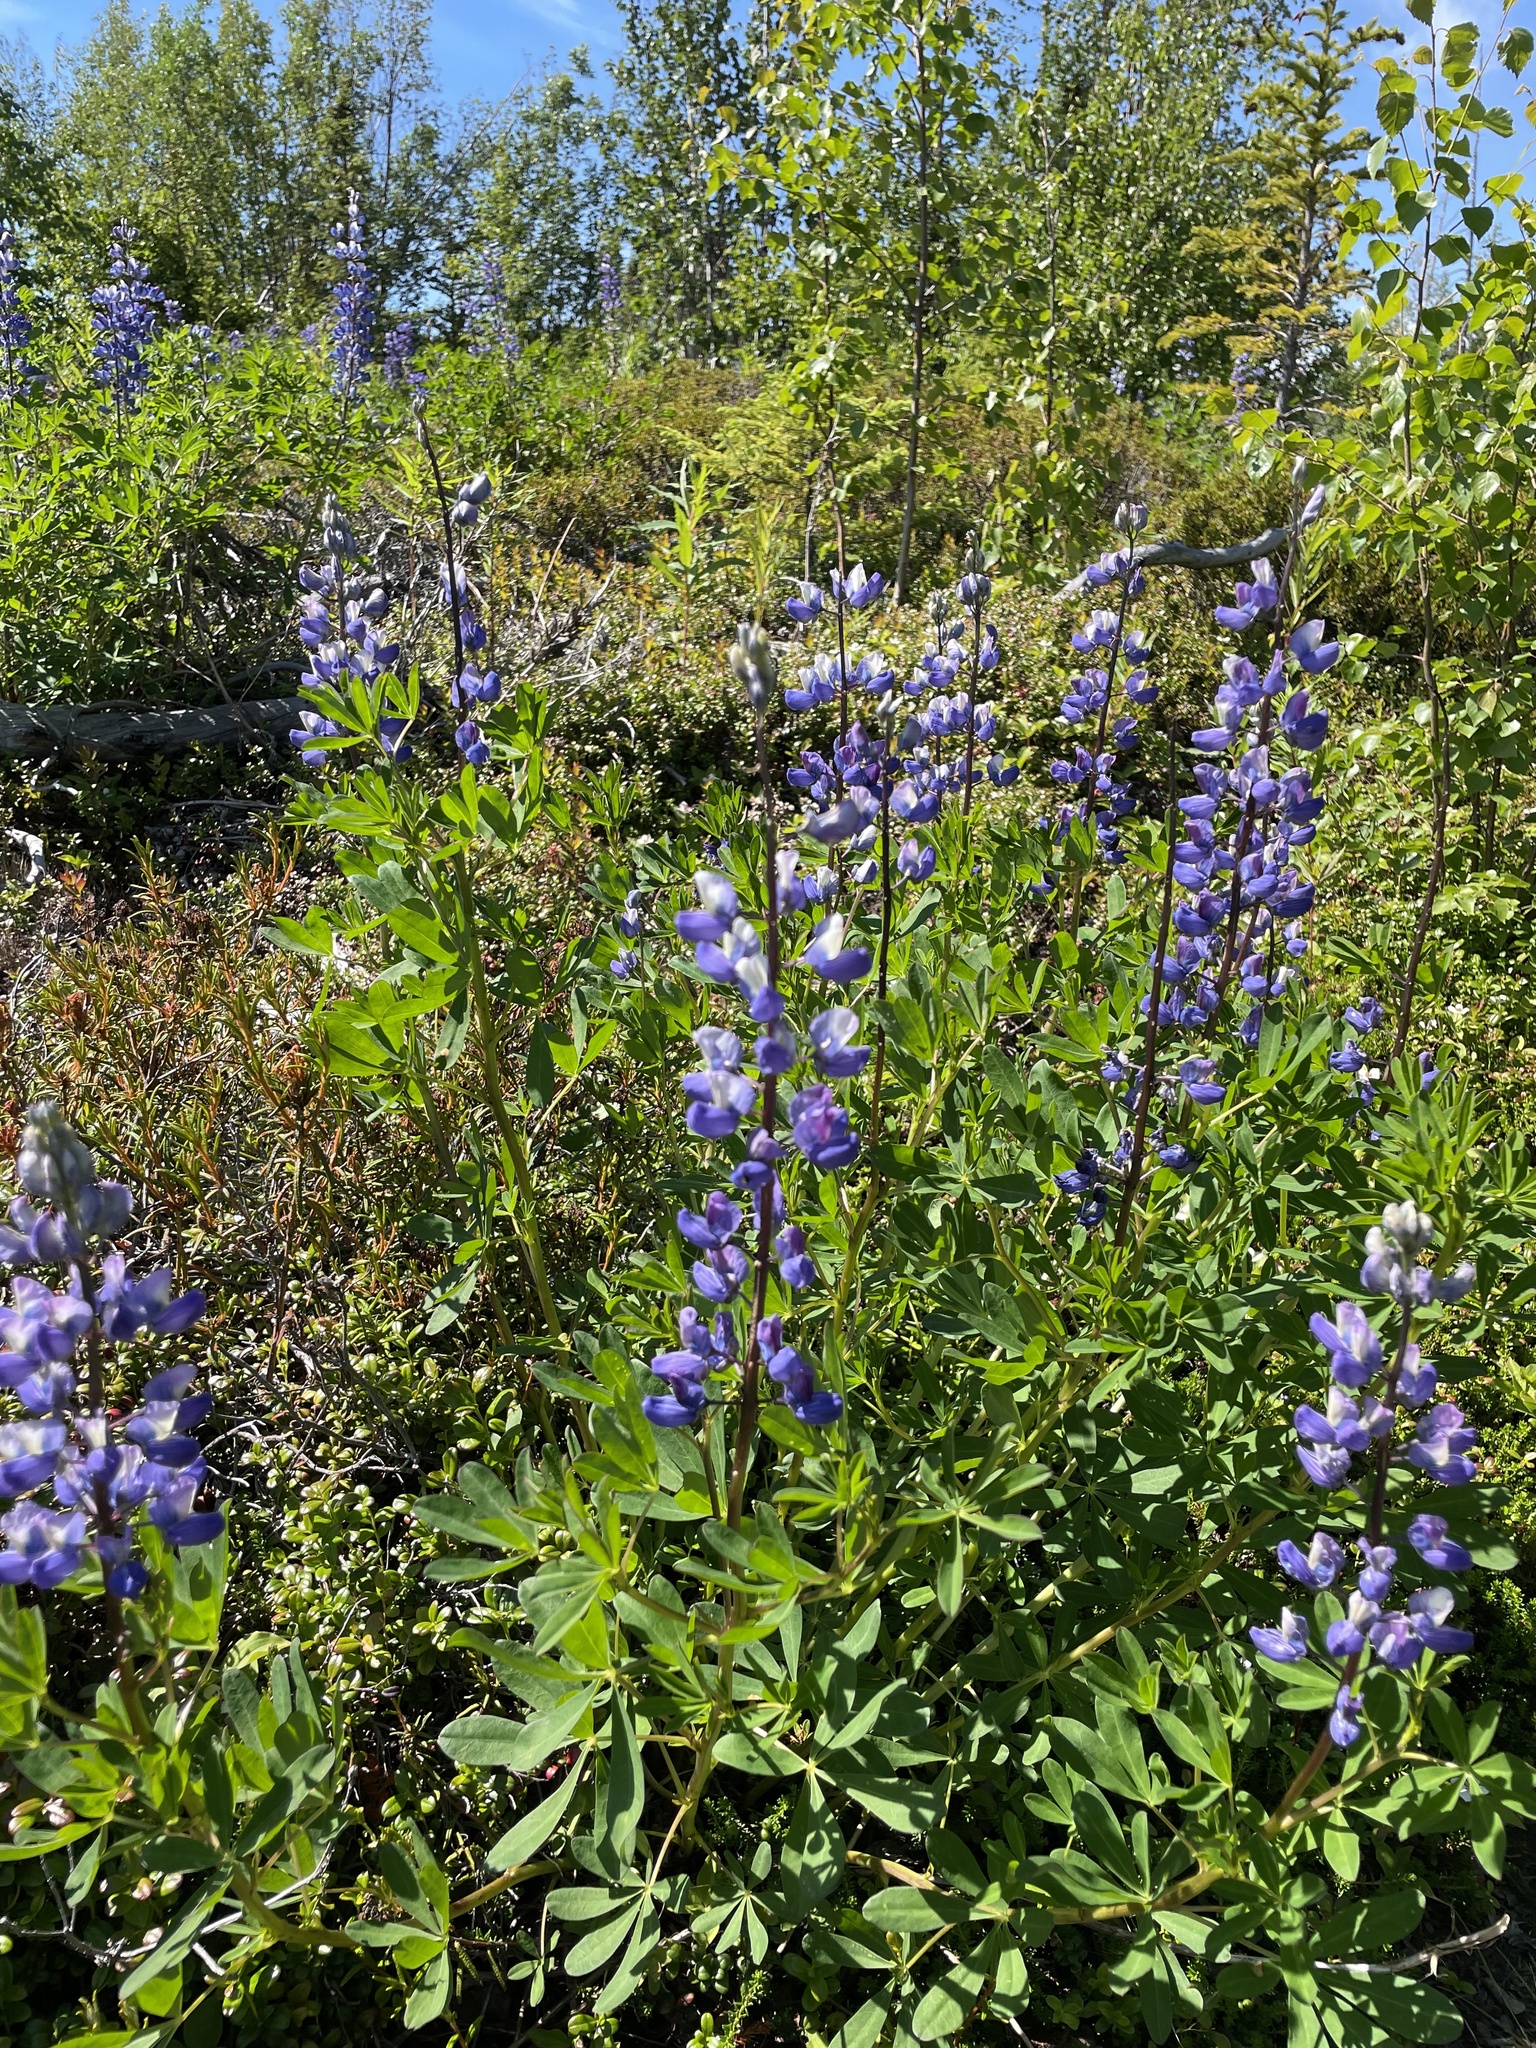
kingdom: Plantae
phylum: Tracheophyta
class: Magnoliopsida
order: Fabales
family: Fabaceae
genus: Lupinus
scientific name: Lupinus nootkatensis
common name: Nootka lupine
